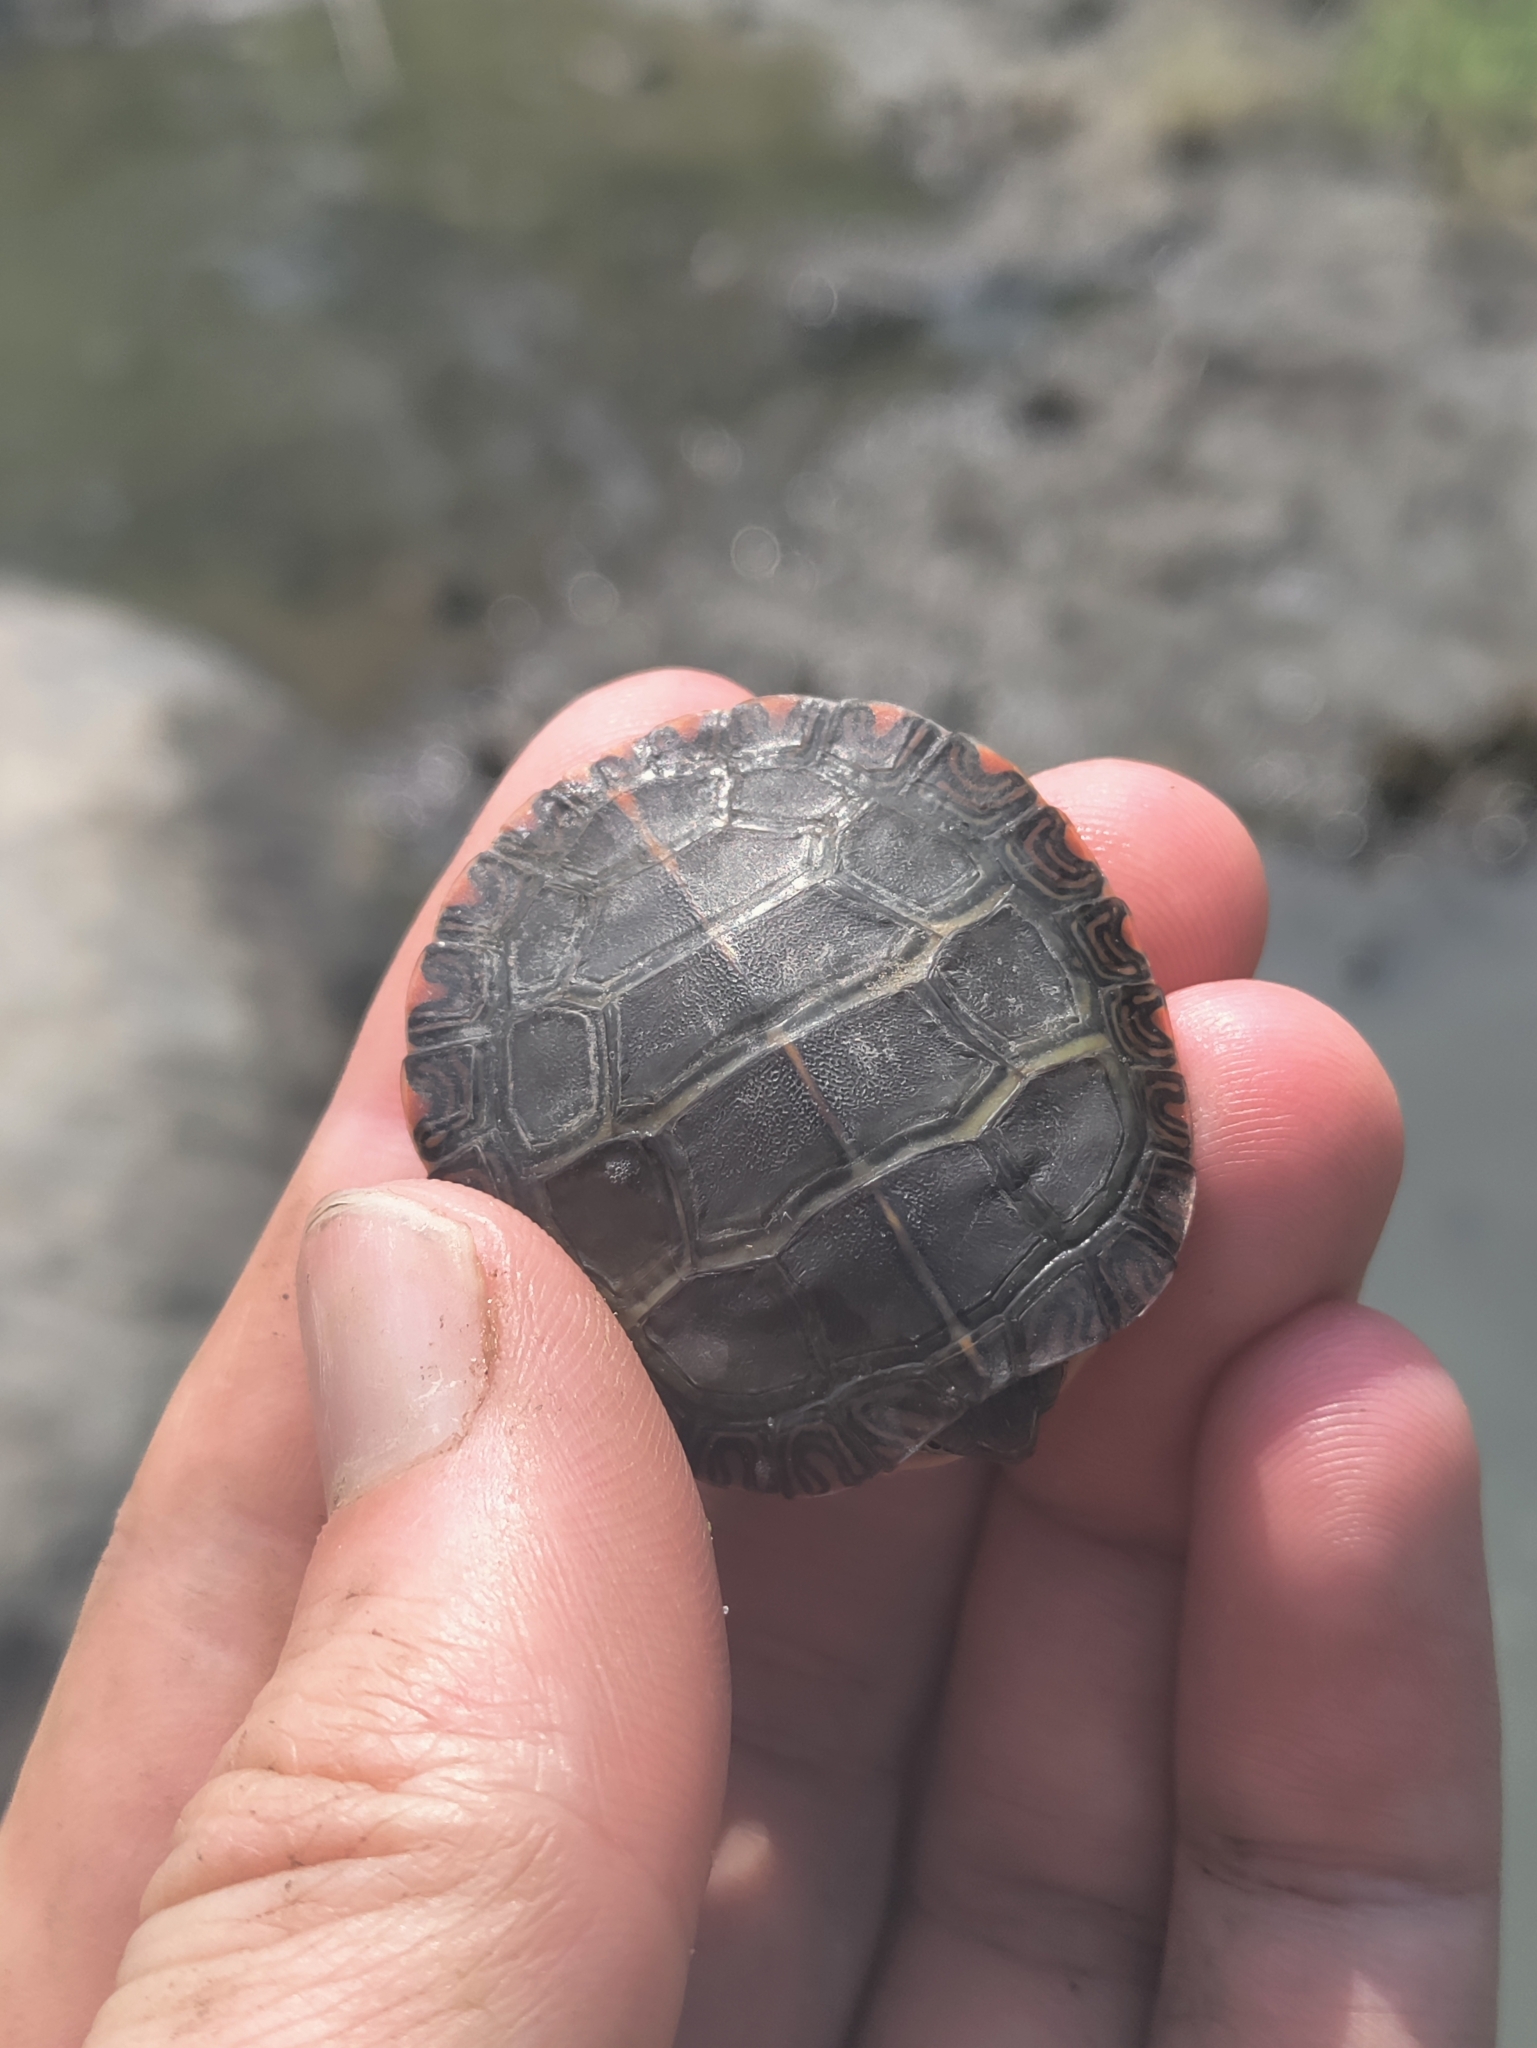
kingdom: Animalia
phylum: Chordata
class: Testudines
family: Emydidae
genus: Chrysemys
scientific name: Chrysemys picta
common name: Painted turtle
